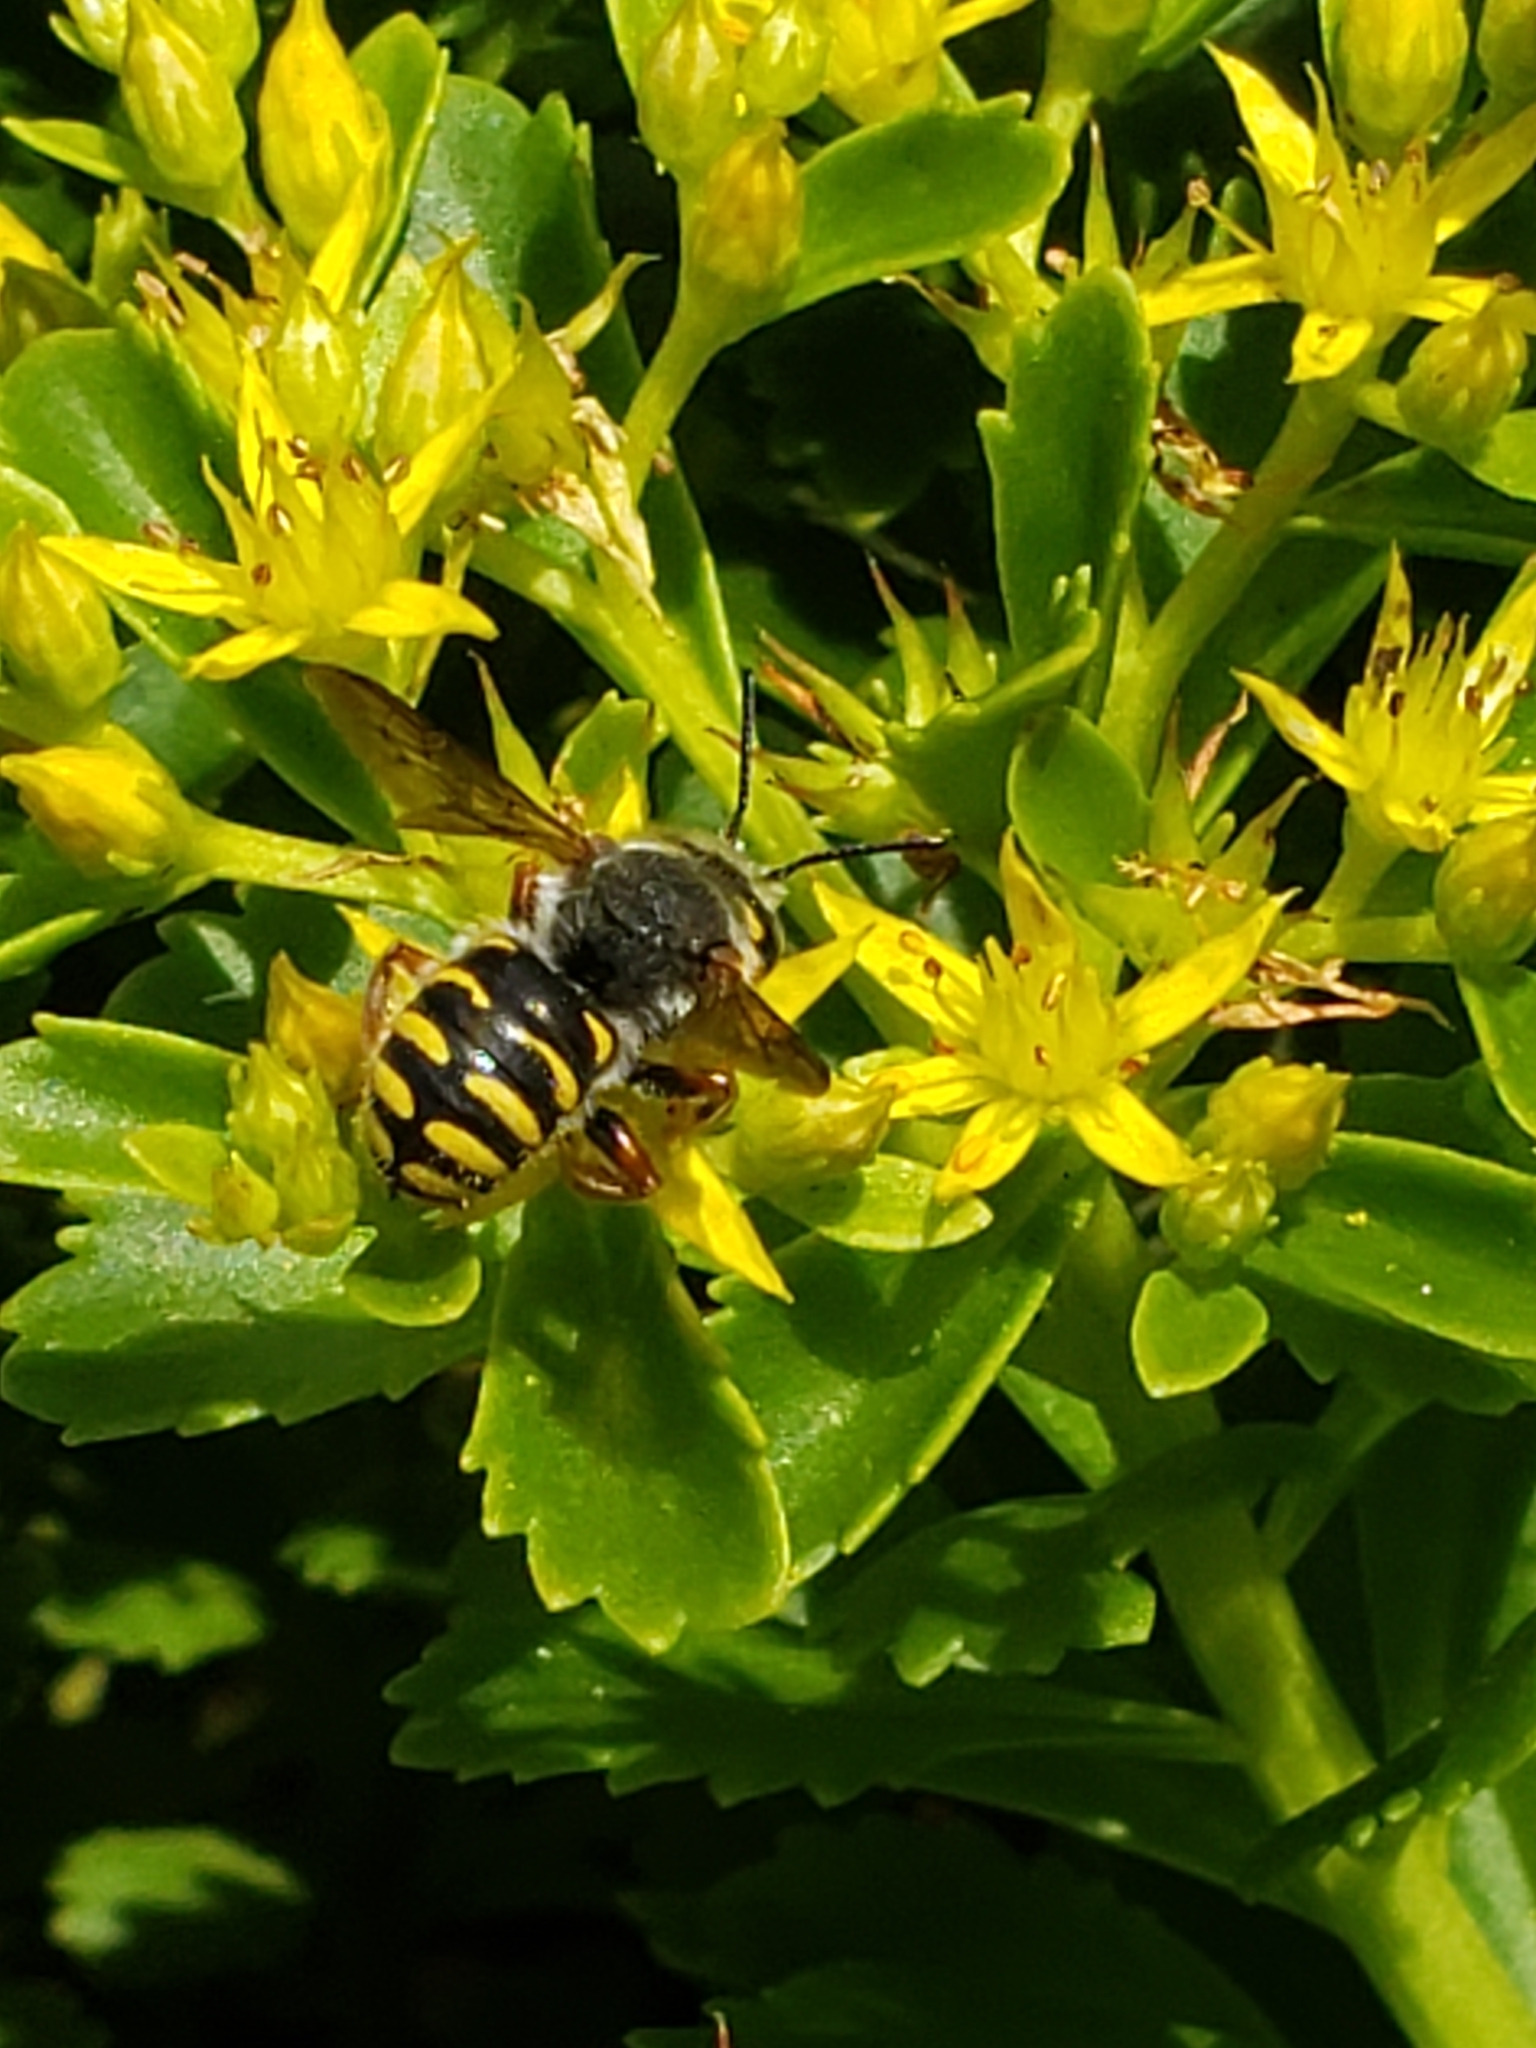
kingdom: Animalia
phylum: Arthropoda
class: Insecta
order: Hymenoptera
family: Megachilidae
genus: Anthidium
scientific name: Anthidium oblongatum
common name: Oblong wool carder bee
